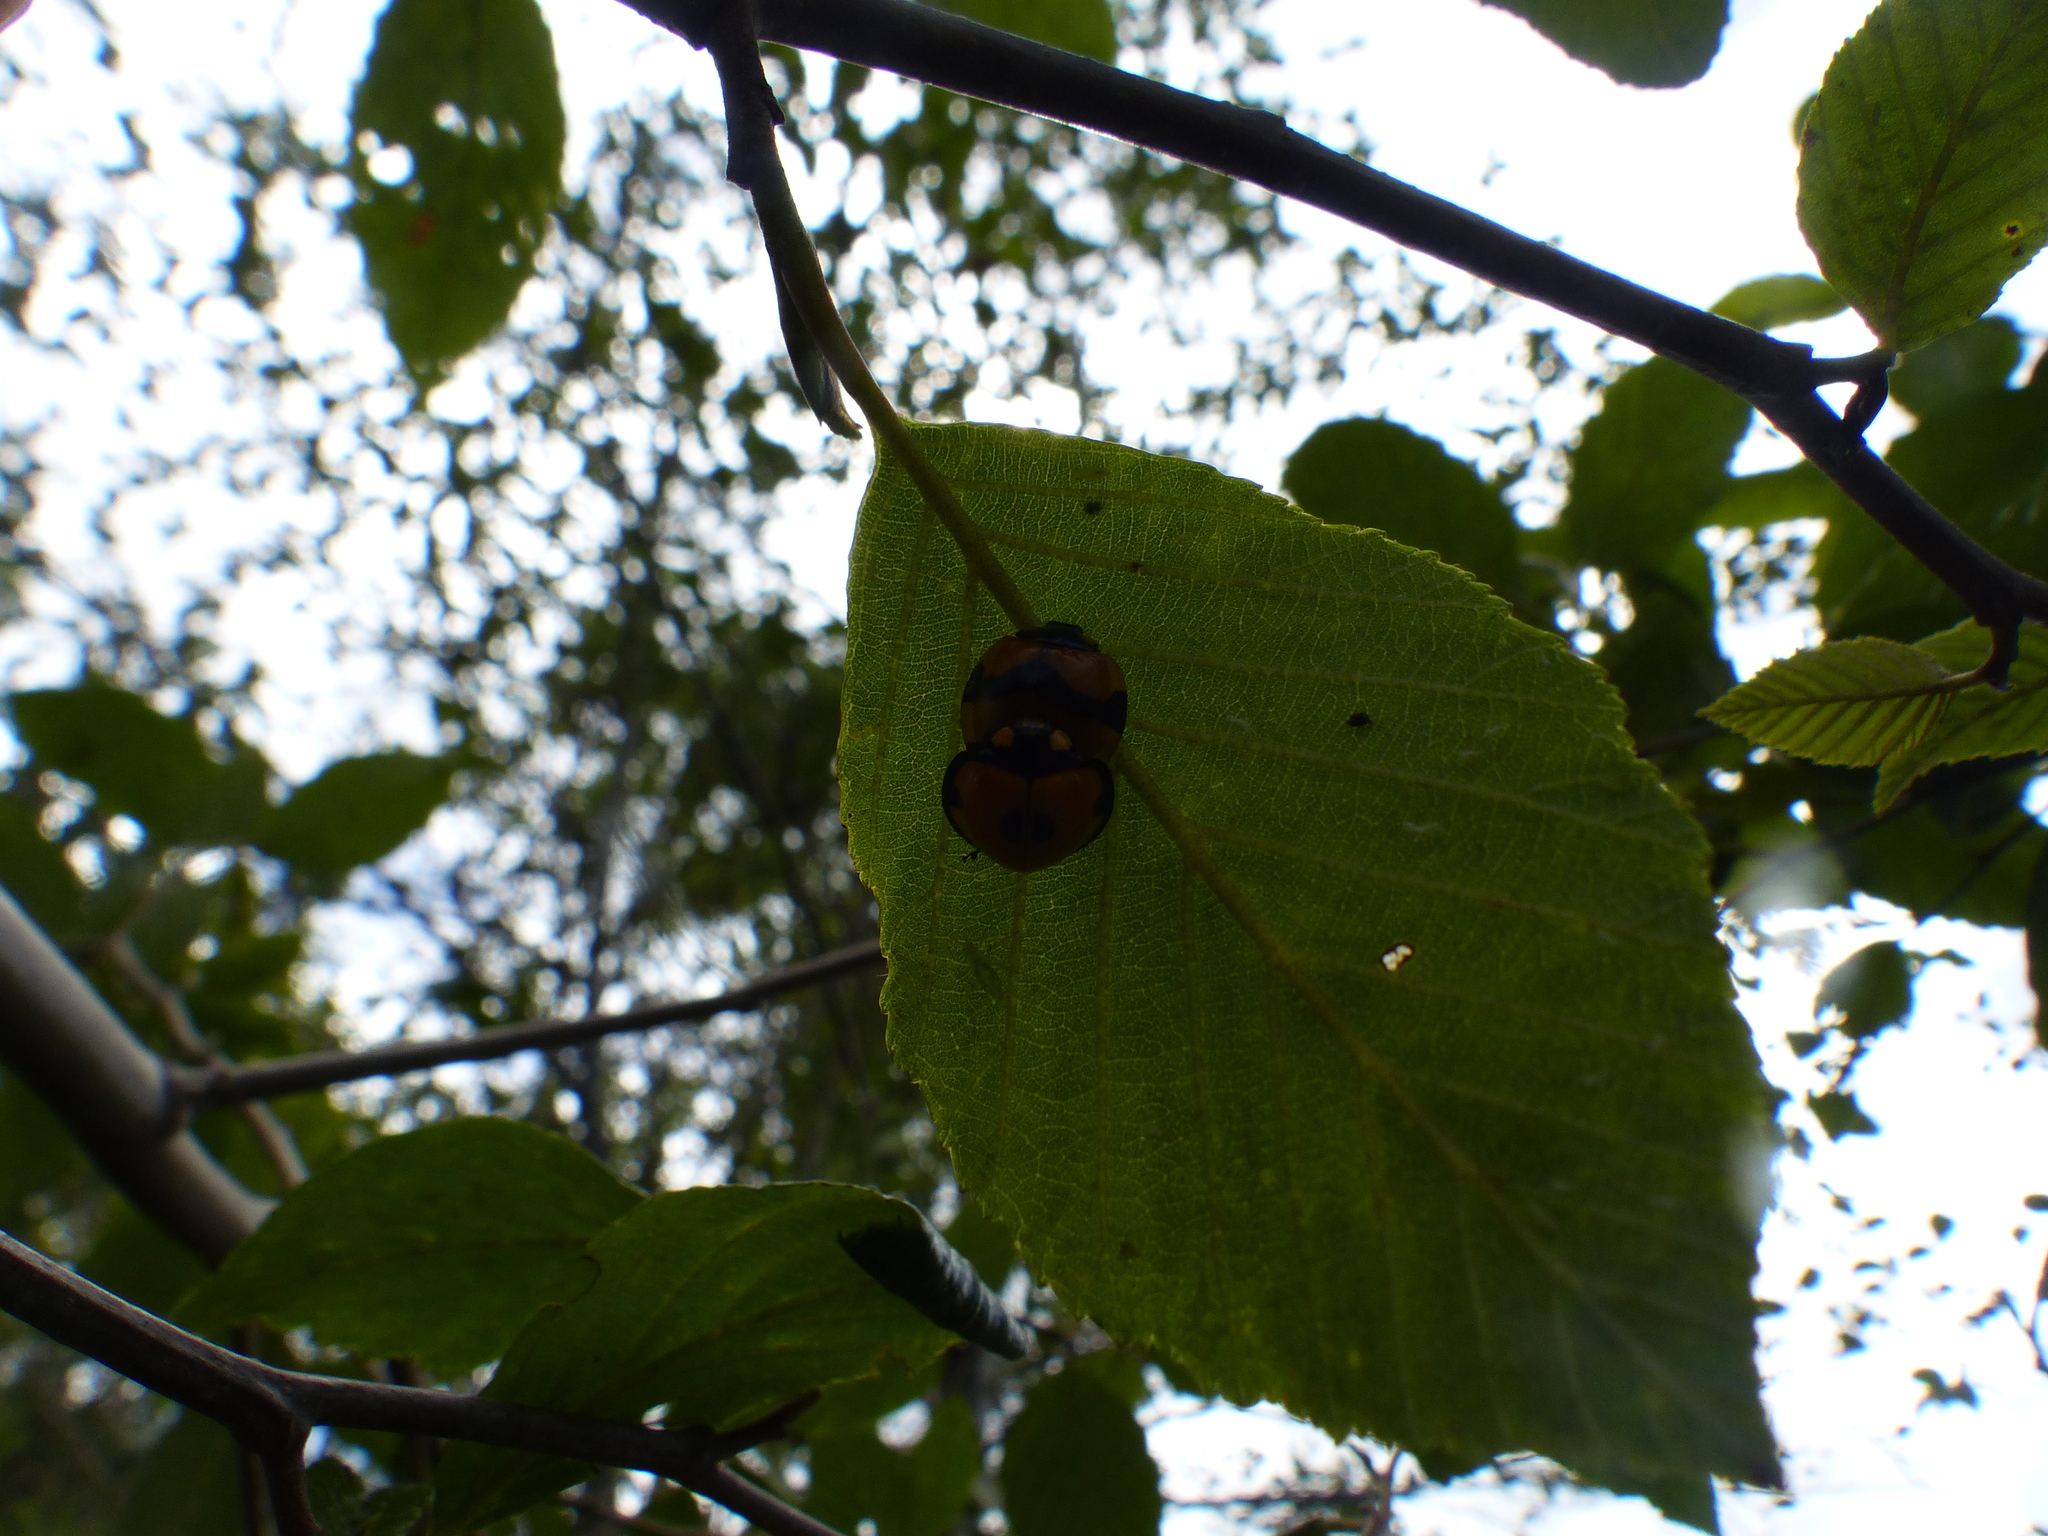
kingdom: Animalia
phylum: Arthropoda
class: Insecta
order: Coleoptera
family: Coccinellidae
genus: Neda
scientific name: Neda norrisi
